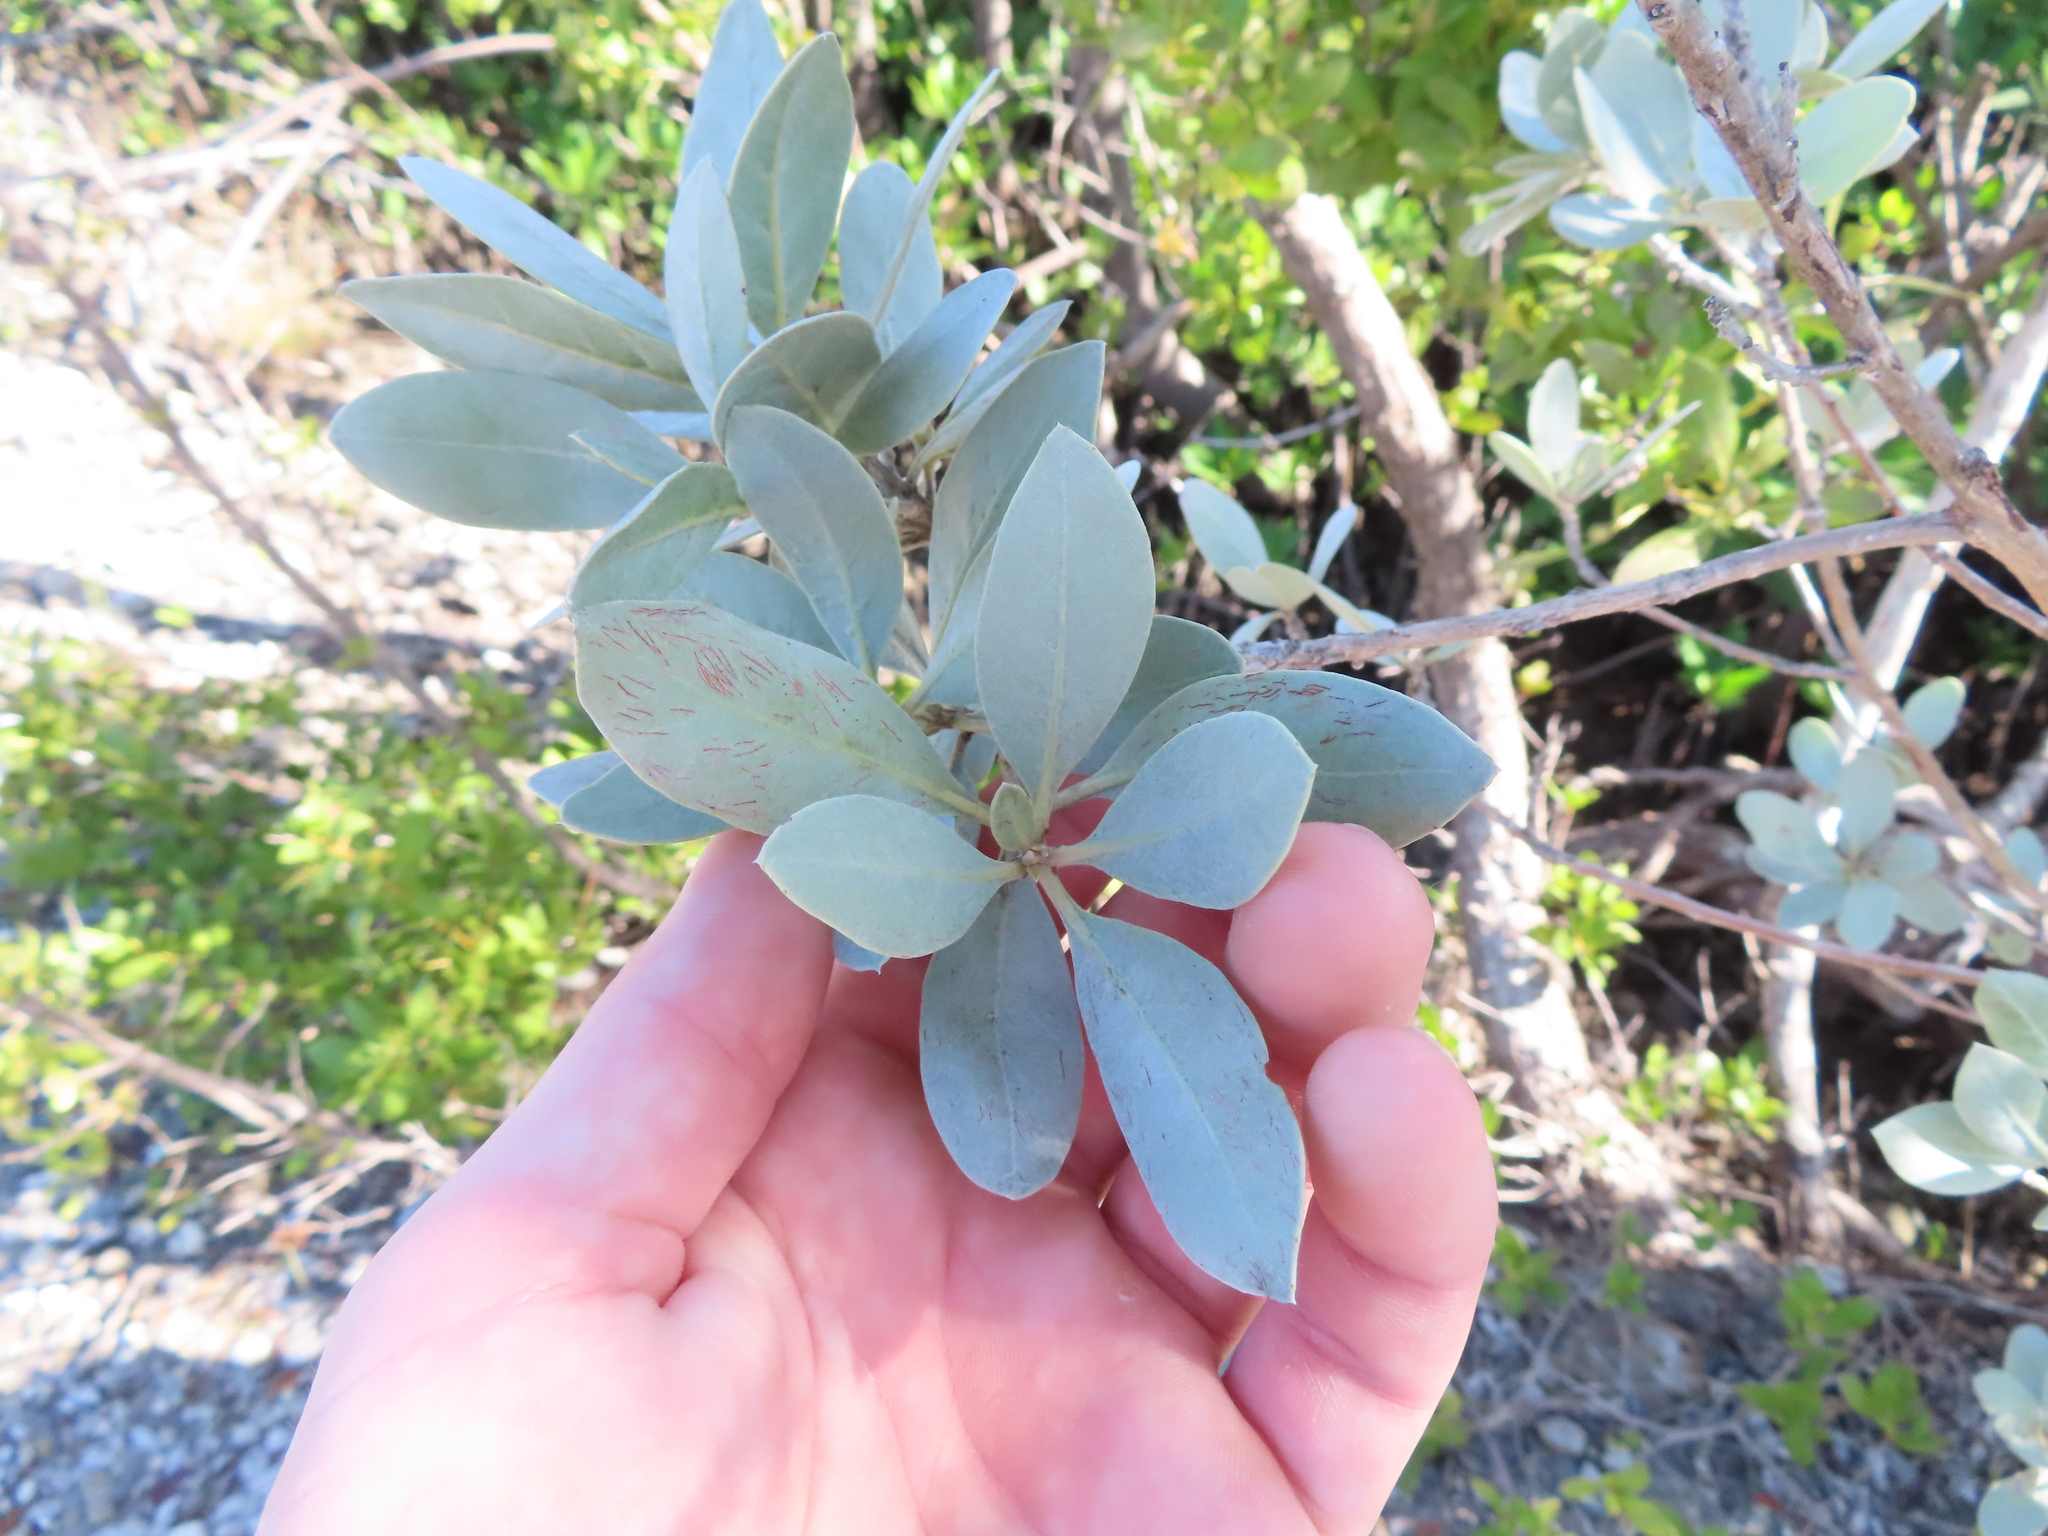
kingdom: Plantae
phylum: Tracheophyta
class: Magnoliopsida
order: Myrtales
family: Combretaceae
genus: Conocarpus
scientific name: Conocarpus erectus
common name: Button mangrove
